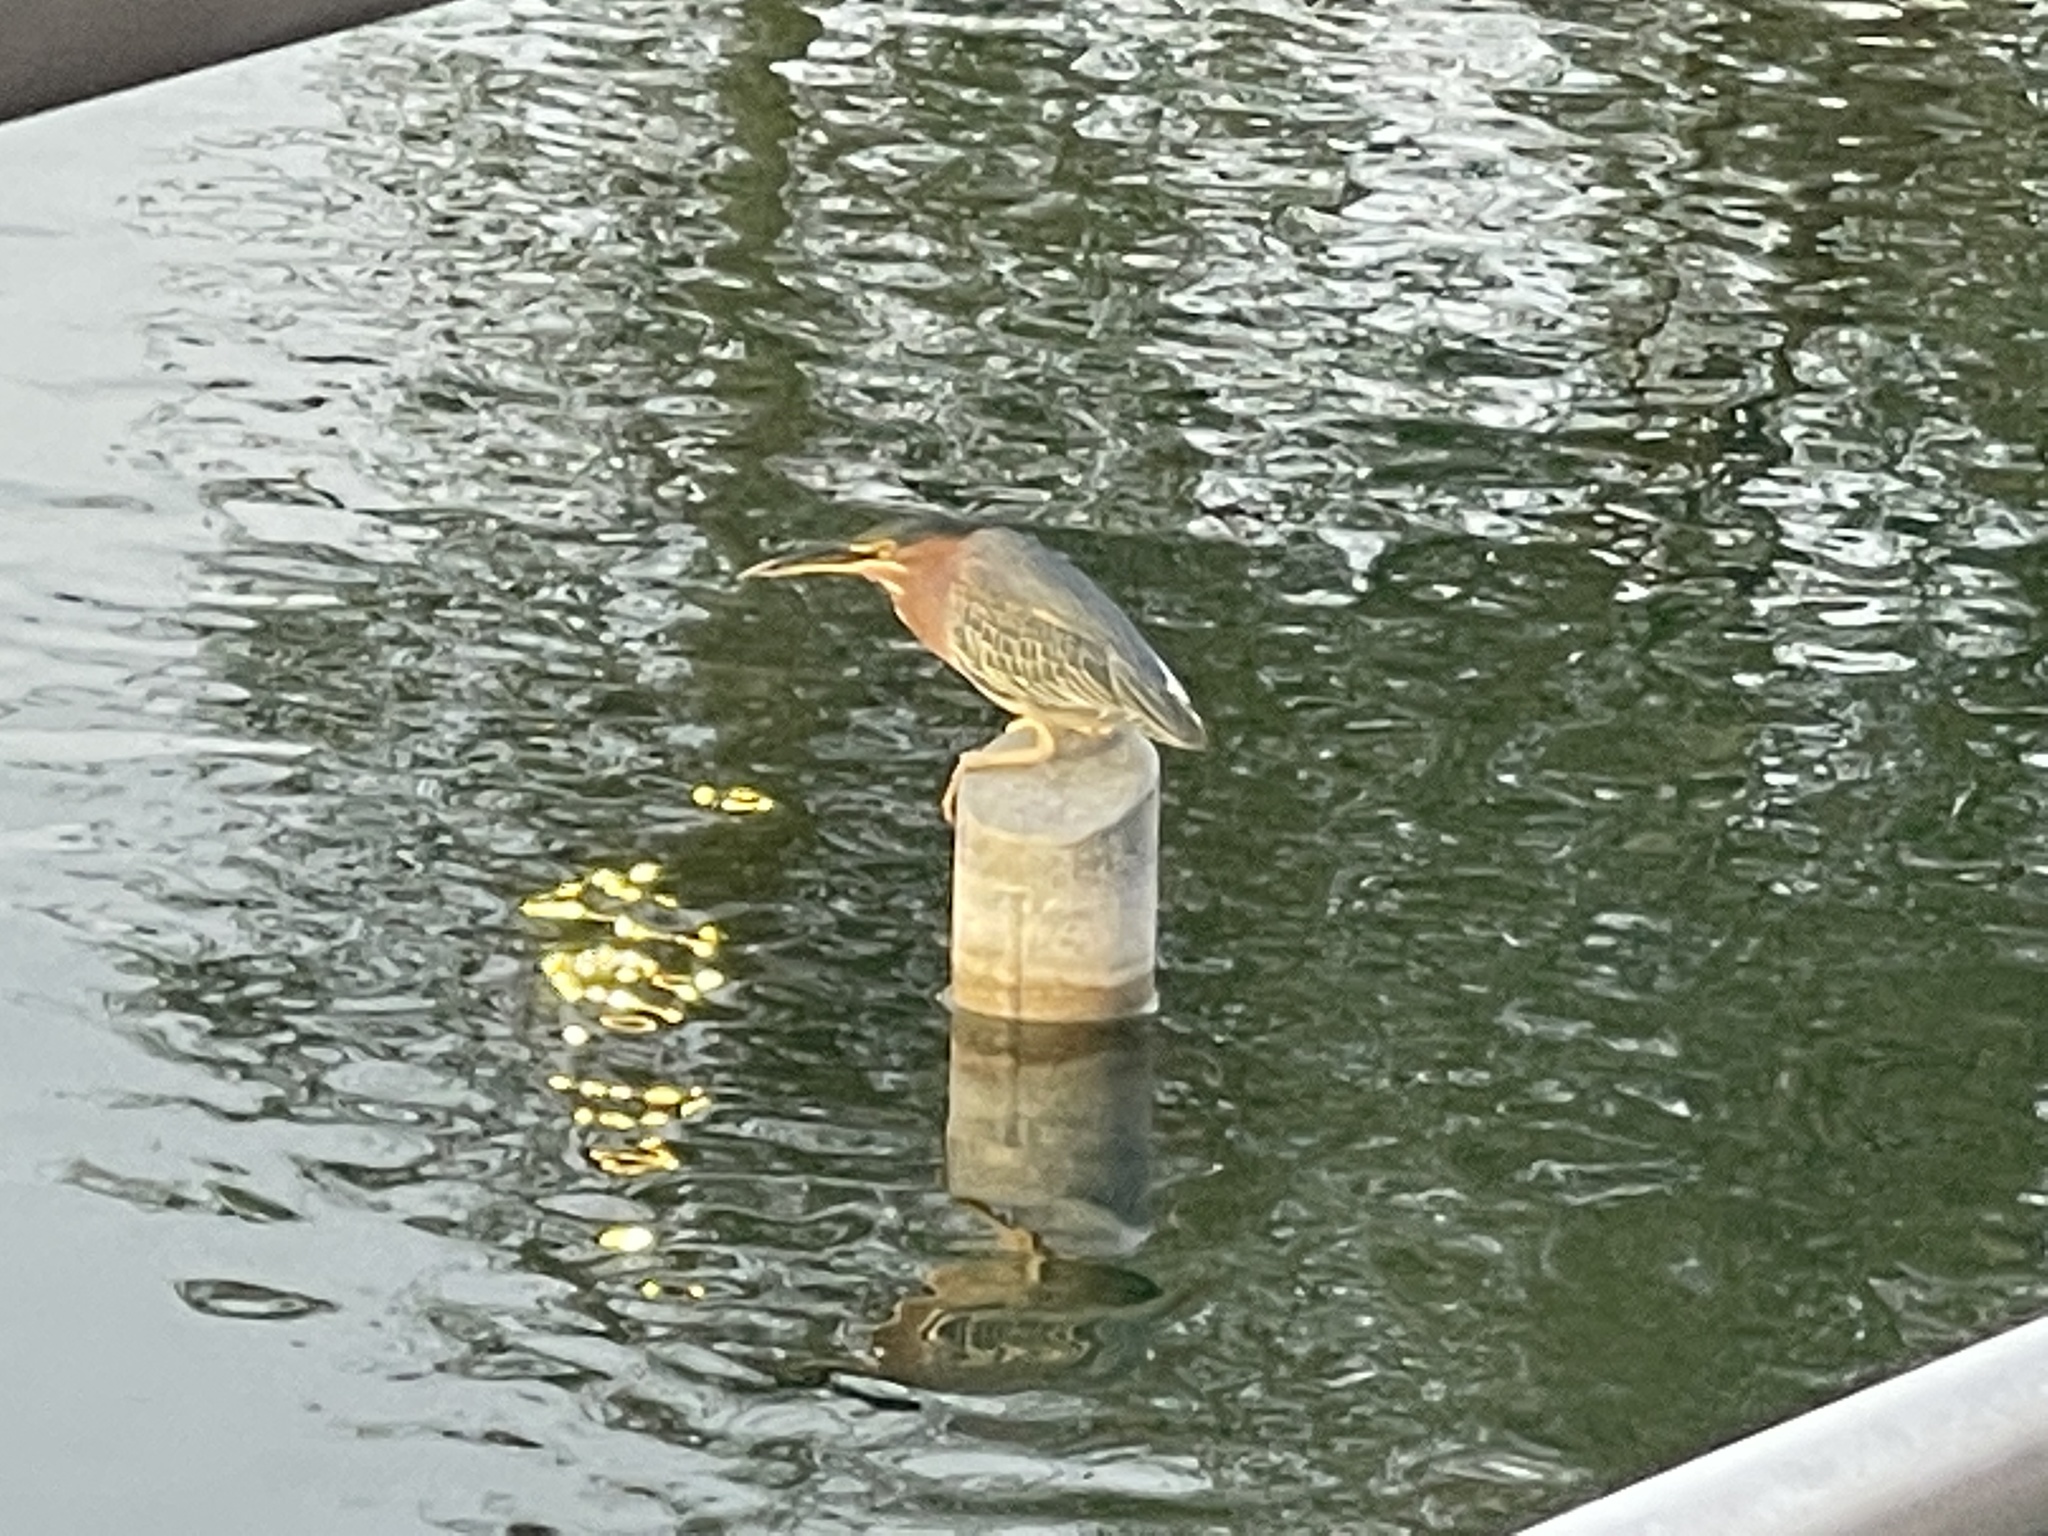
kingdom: Animalia
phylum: Chordata
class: Aves
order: Pelecaniformes
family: Ardeidae
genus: Butorides
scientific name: Butorides virescens
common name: Green heron
